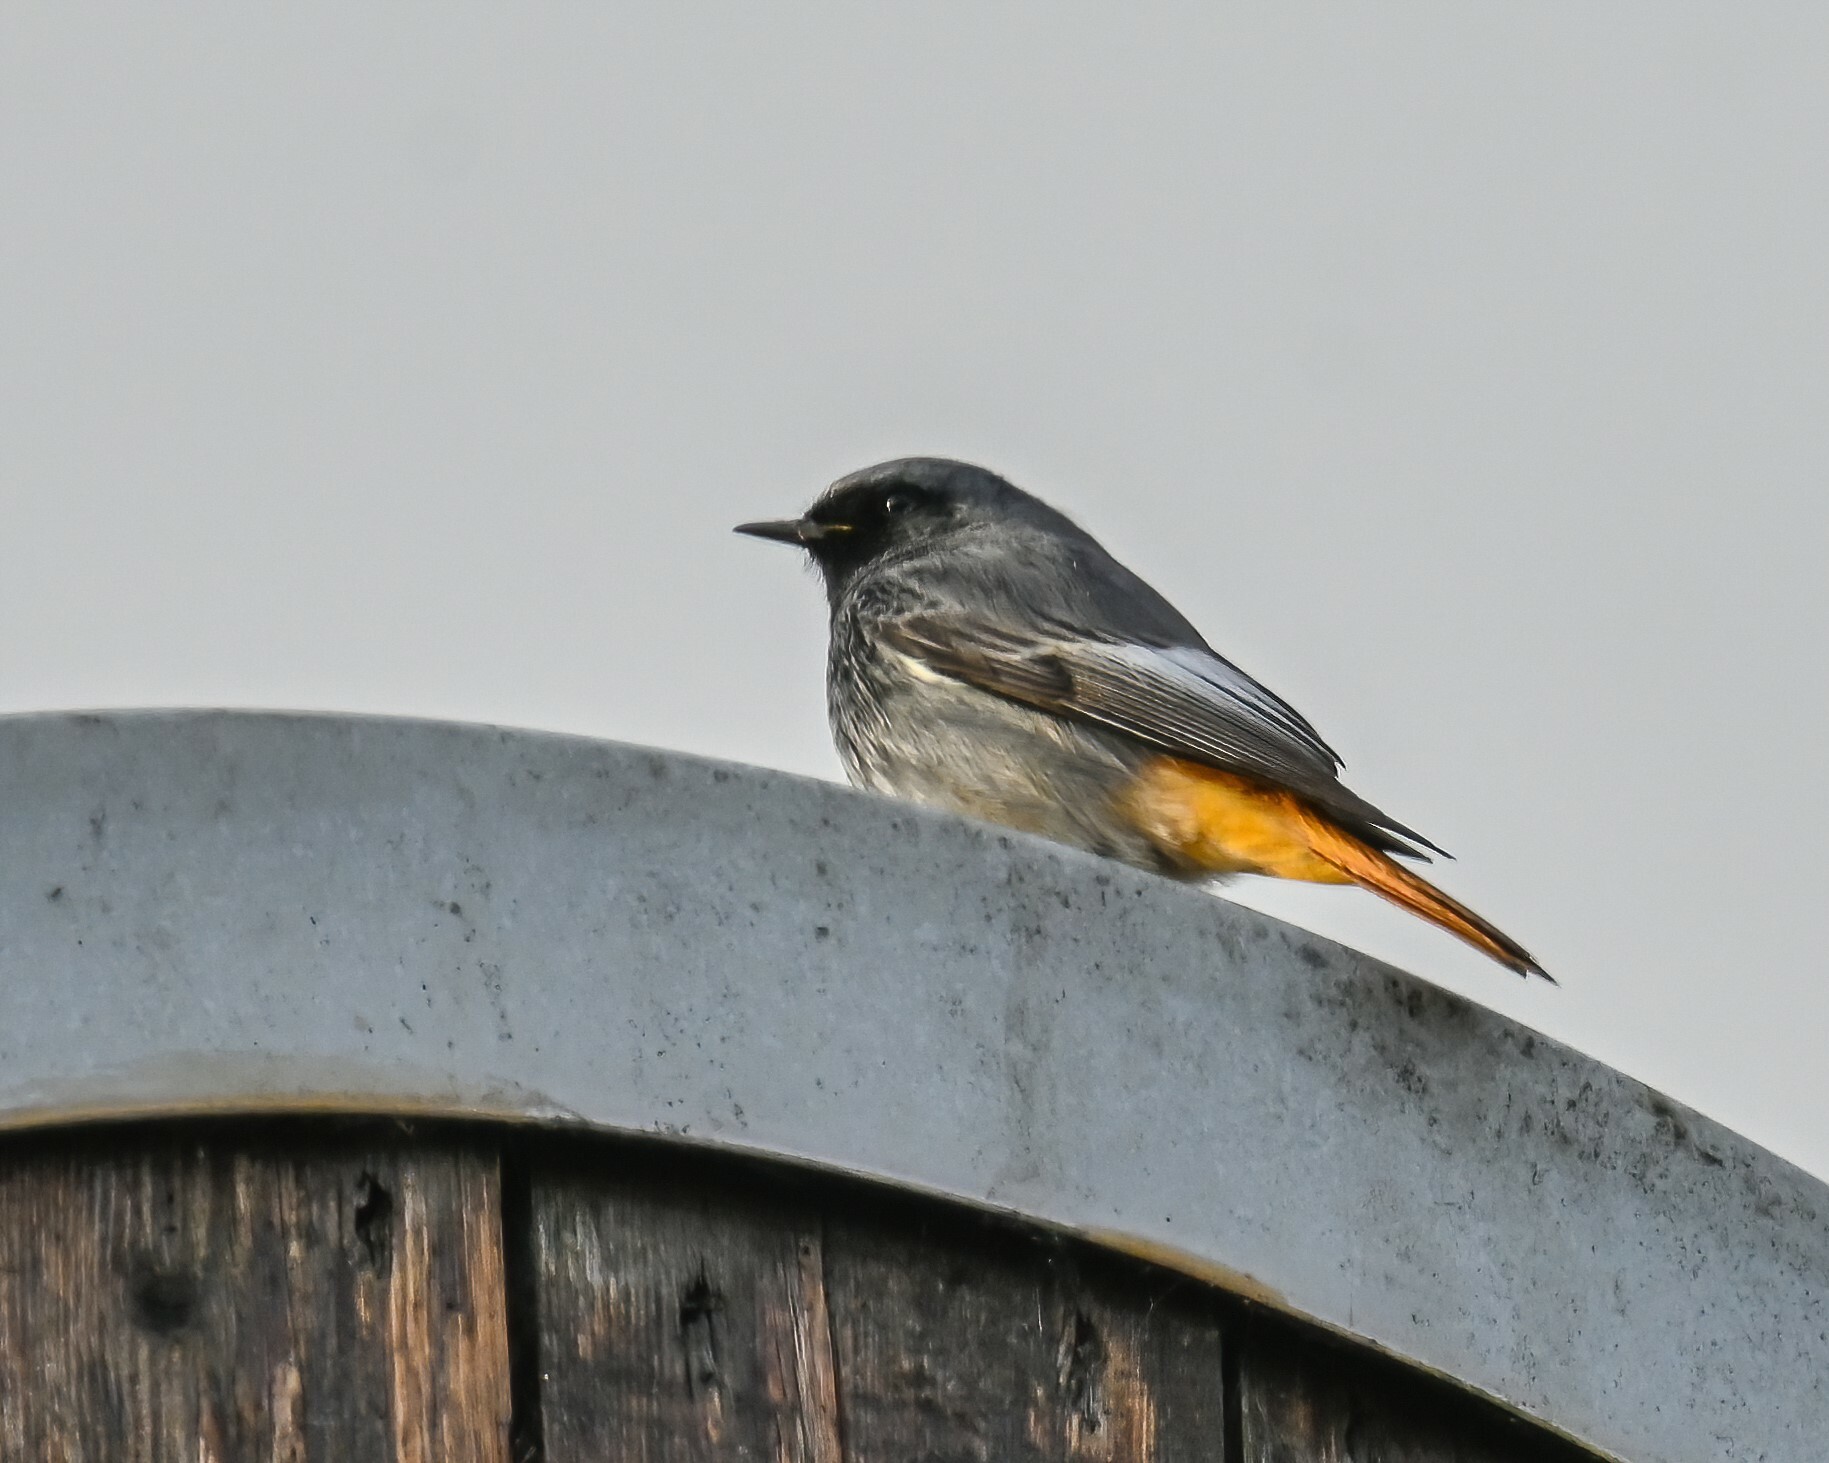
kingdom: Animalia
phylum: Chordata
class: Aves
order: Passeriformes
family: Muscicapidae
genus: Phoenicurus
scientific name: Phoenicurus ochruros
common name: Black redstart
